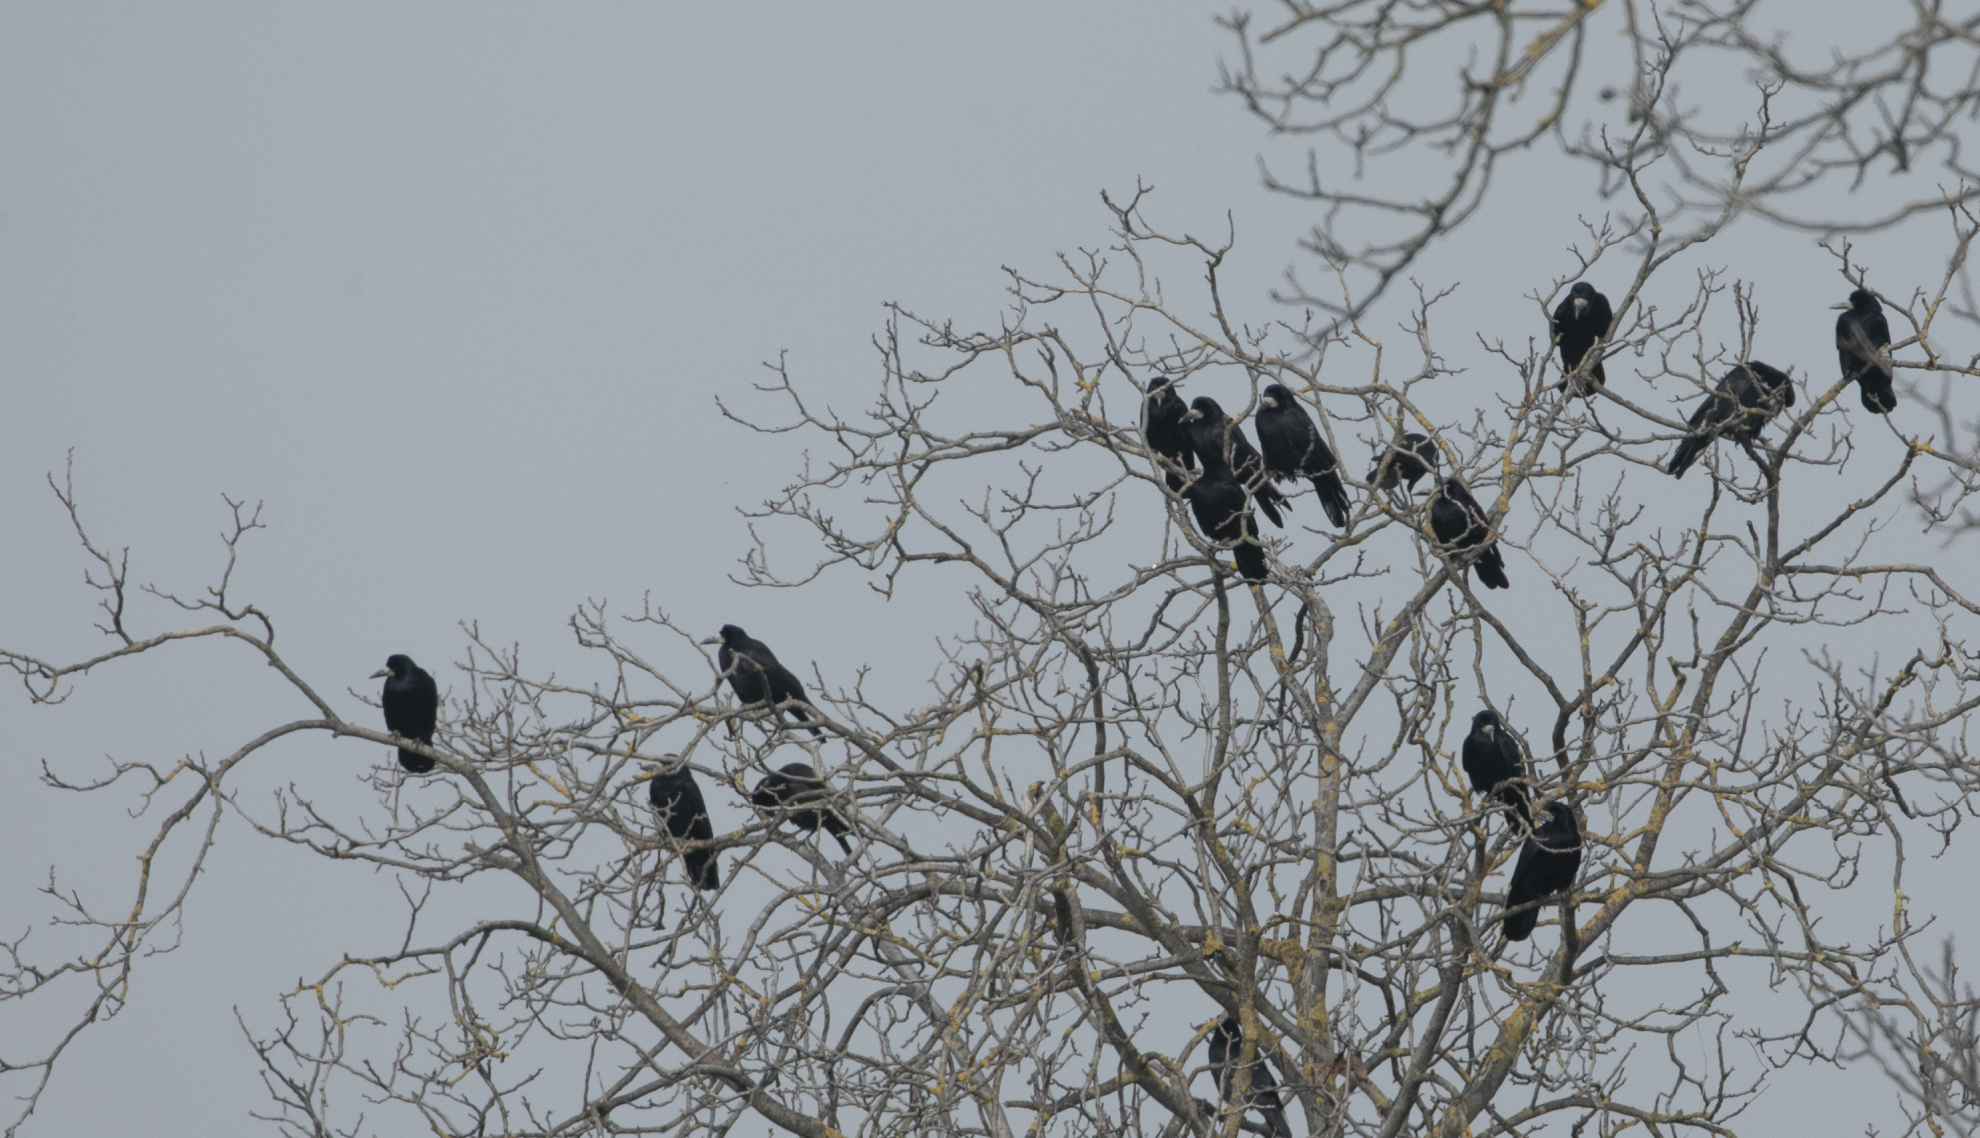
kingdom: Animalia
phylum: Chordata
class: Aves
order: Passeriformes
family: Corvidae
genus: Corvus
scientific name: Corvus frugilegus
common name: Rook
